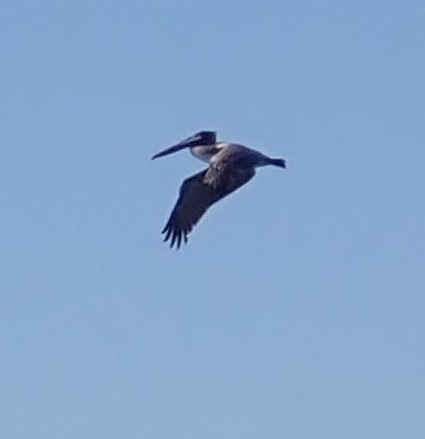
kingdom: Animalia
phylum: Chordata
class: Aves
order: Pelecaniformes
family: Pelecanidae
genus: Pelecanus
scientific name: Pelecanus occidentalis
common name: Brown pelican
